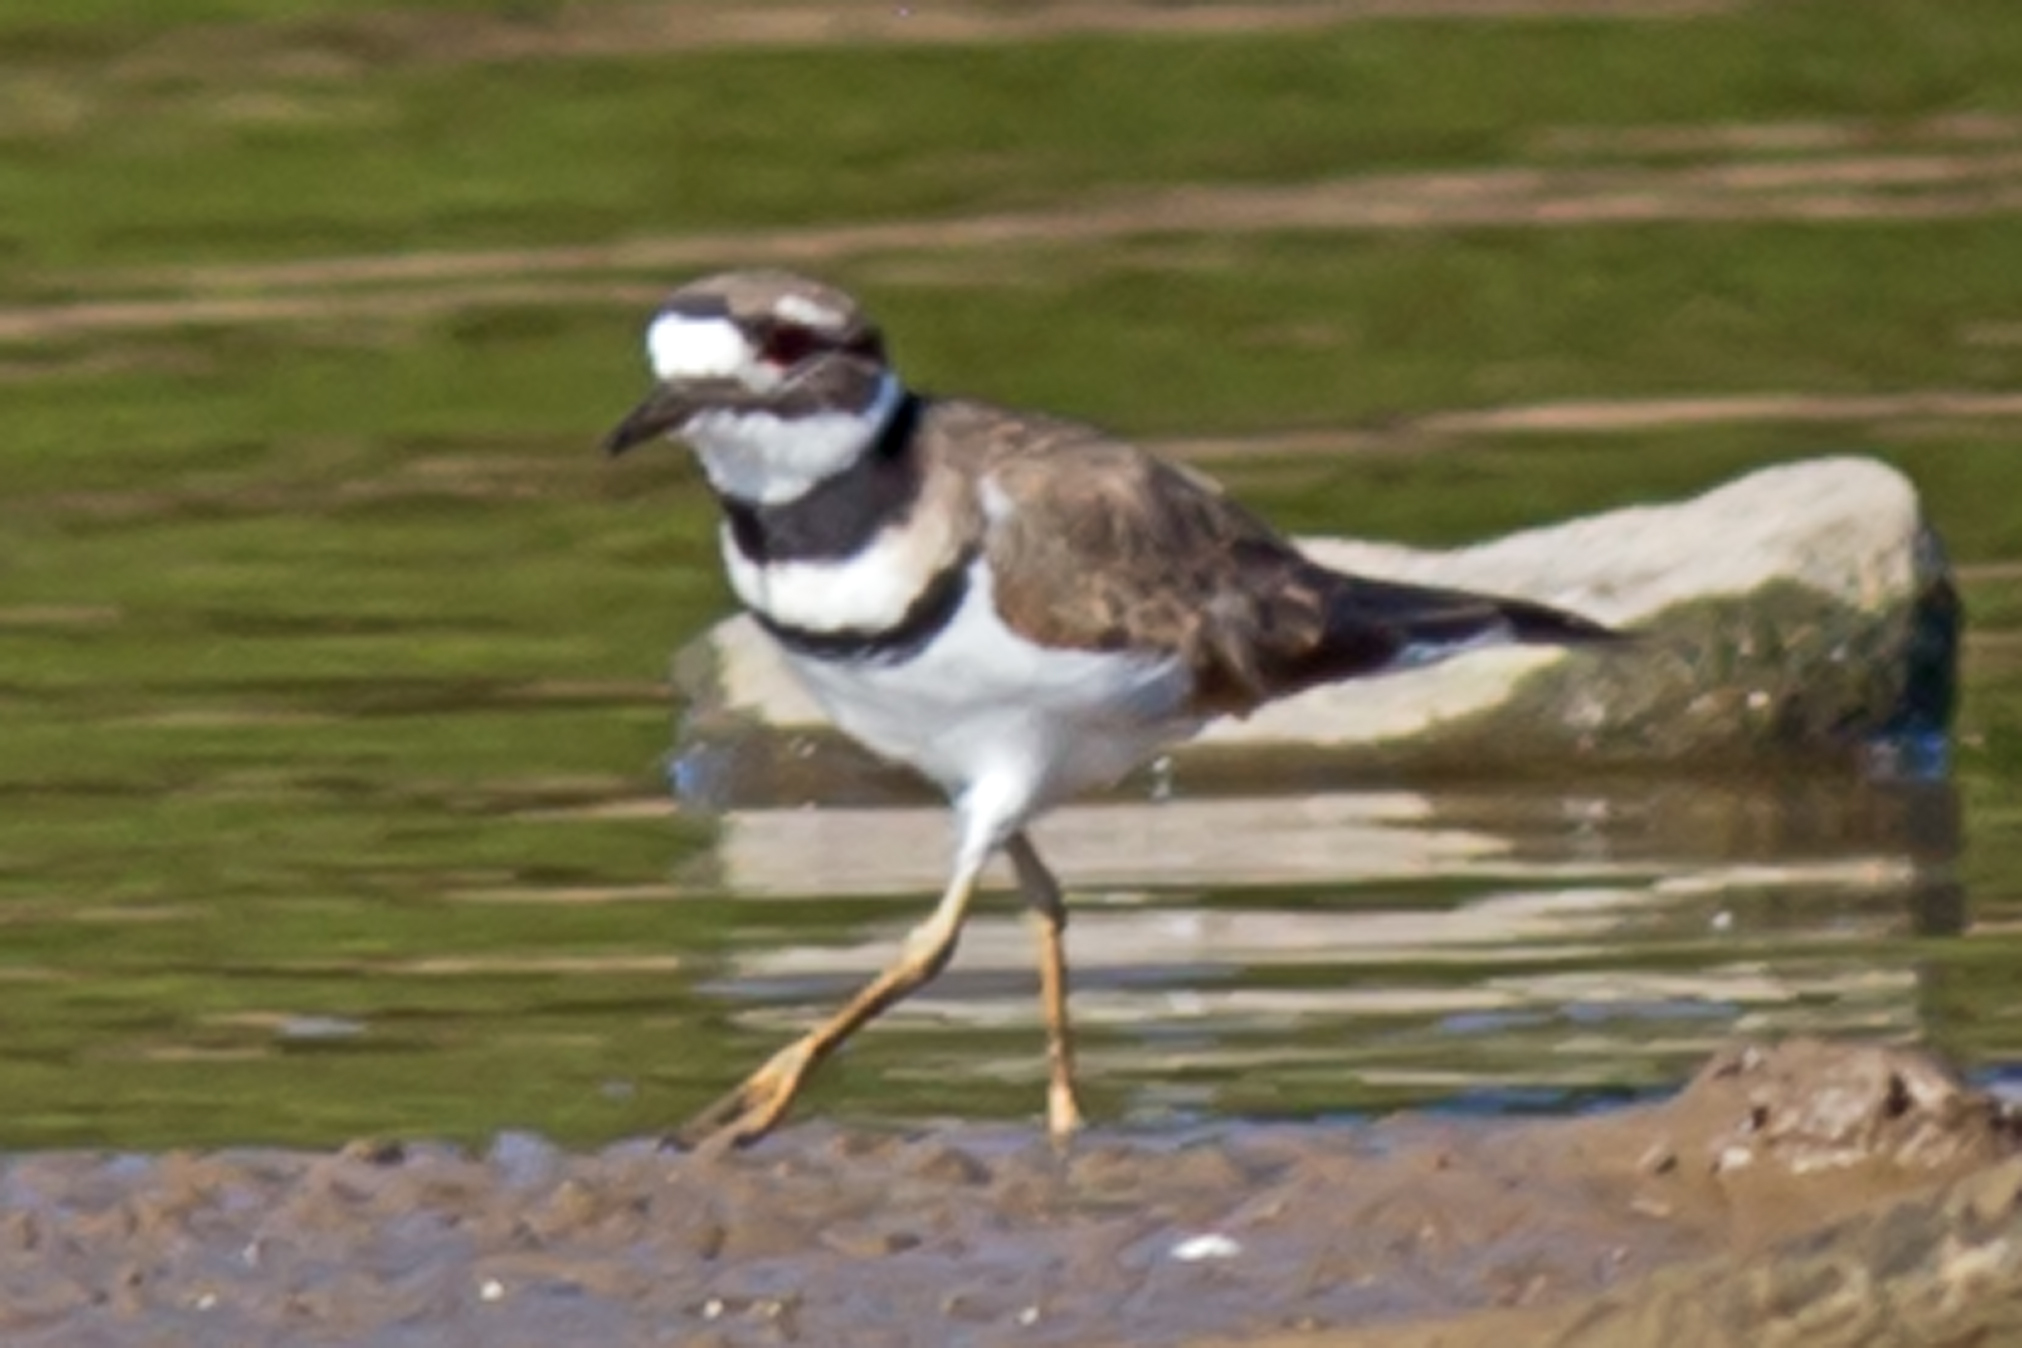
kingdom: Animalia
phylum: Chordata
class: Aves
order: Charadriiformes
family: Charadriidae
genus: Charadrius
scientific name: Charadrius vociferus
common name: Killdeer
